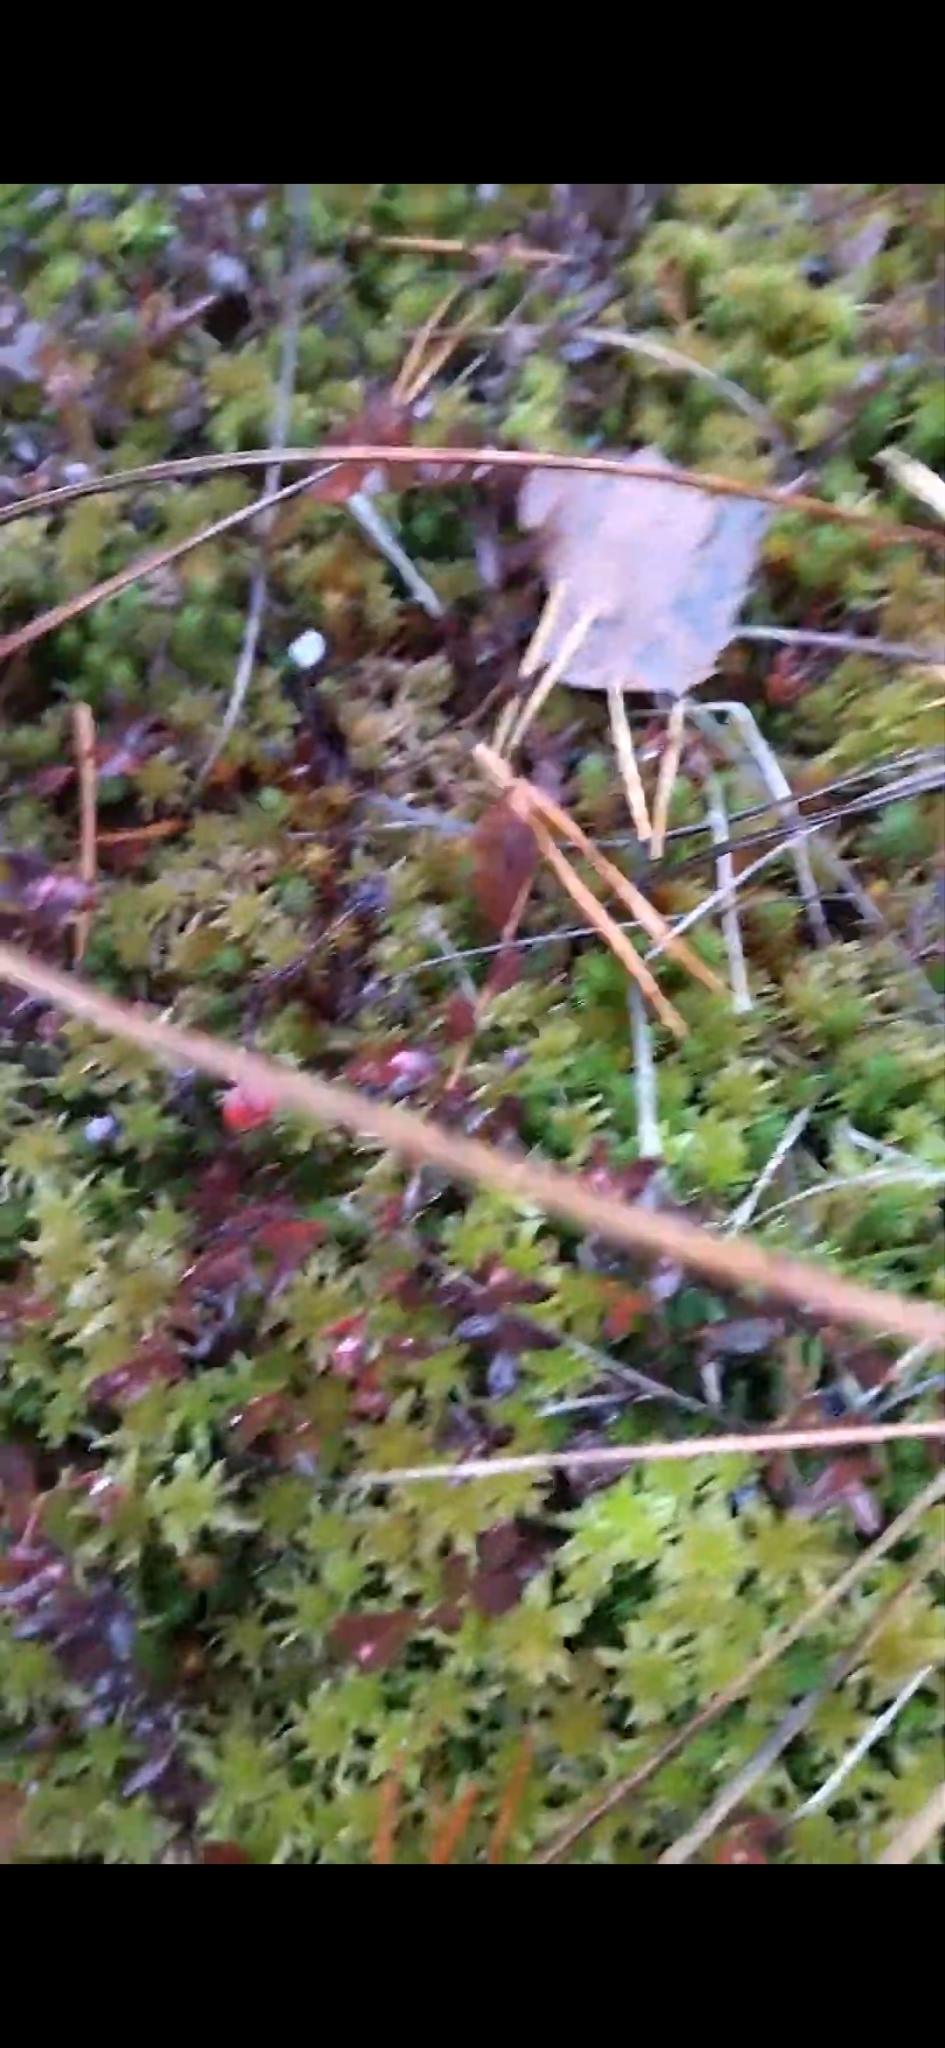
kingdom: Plantae
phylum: Tracheophyta
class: Magnoliopsida
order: Ericales
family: Ericaceae
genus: Vaccinium
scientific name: Vaccinium oxycoccos
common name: Cranberry
